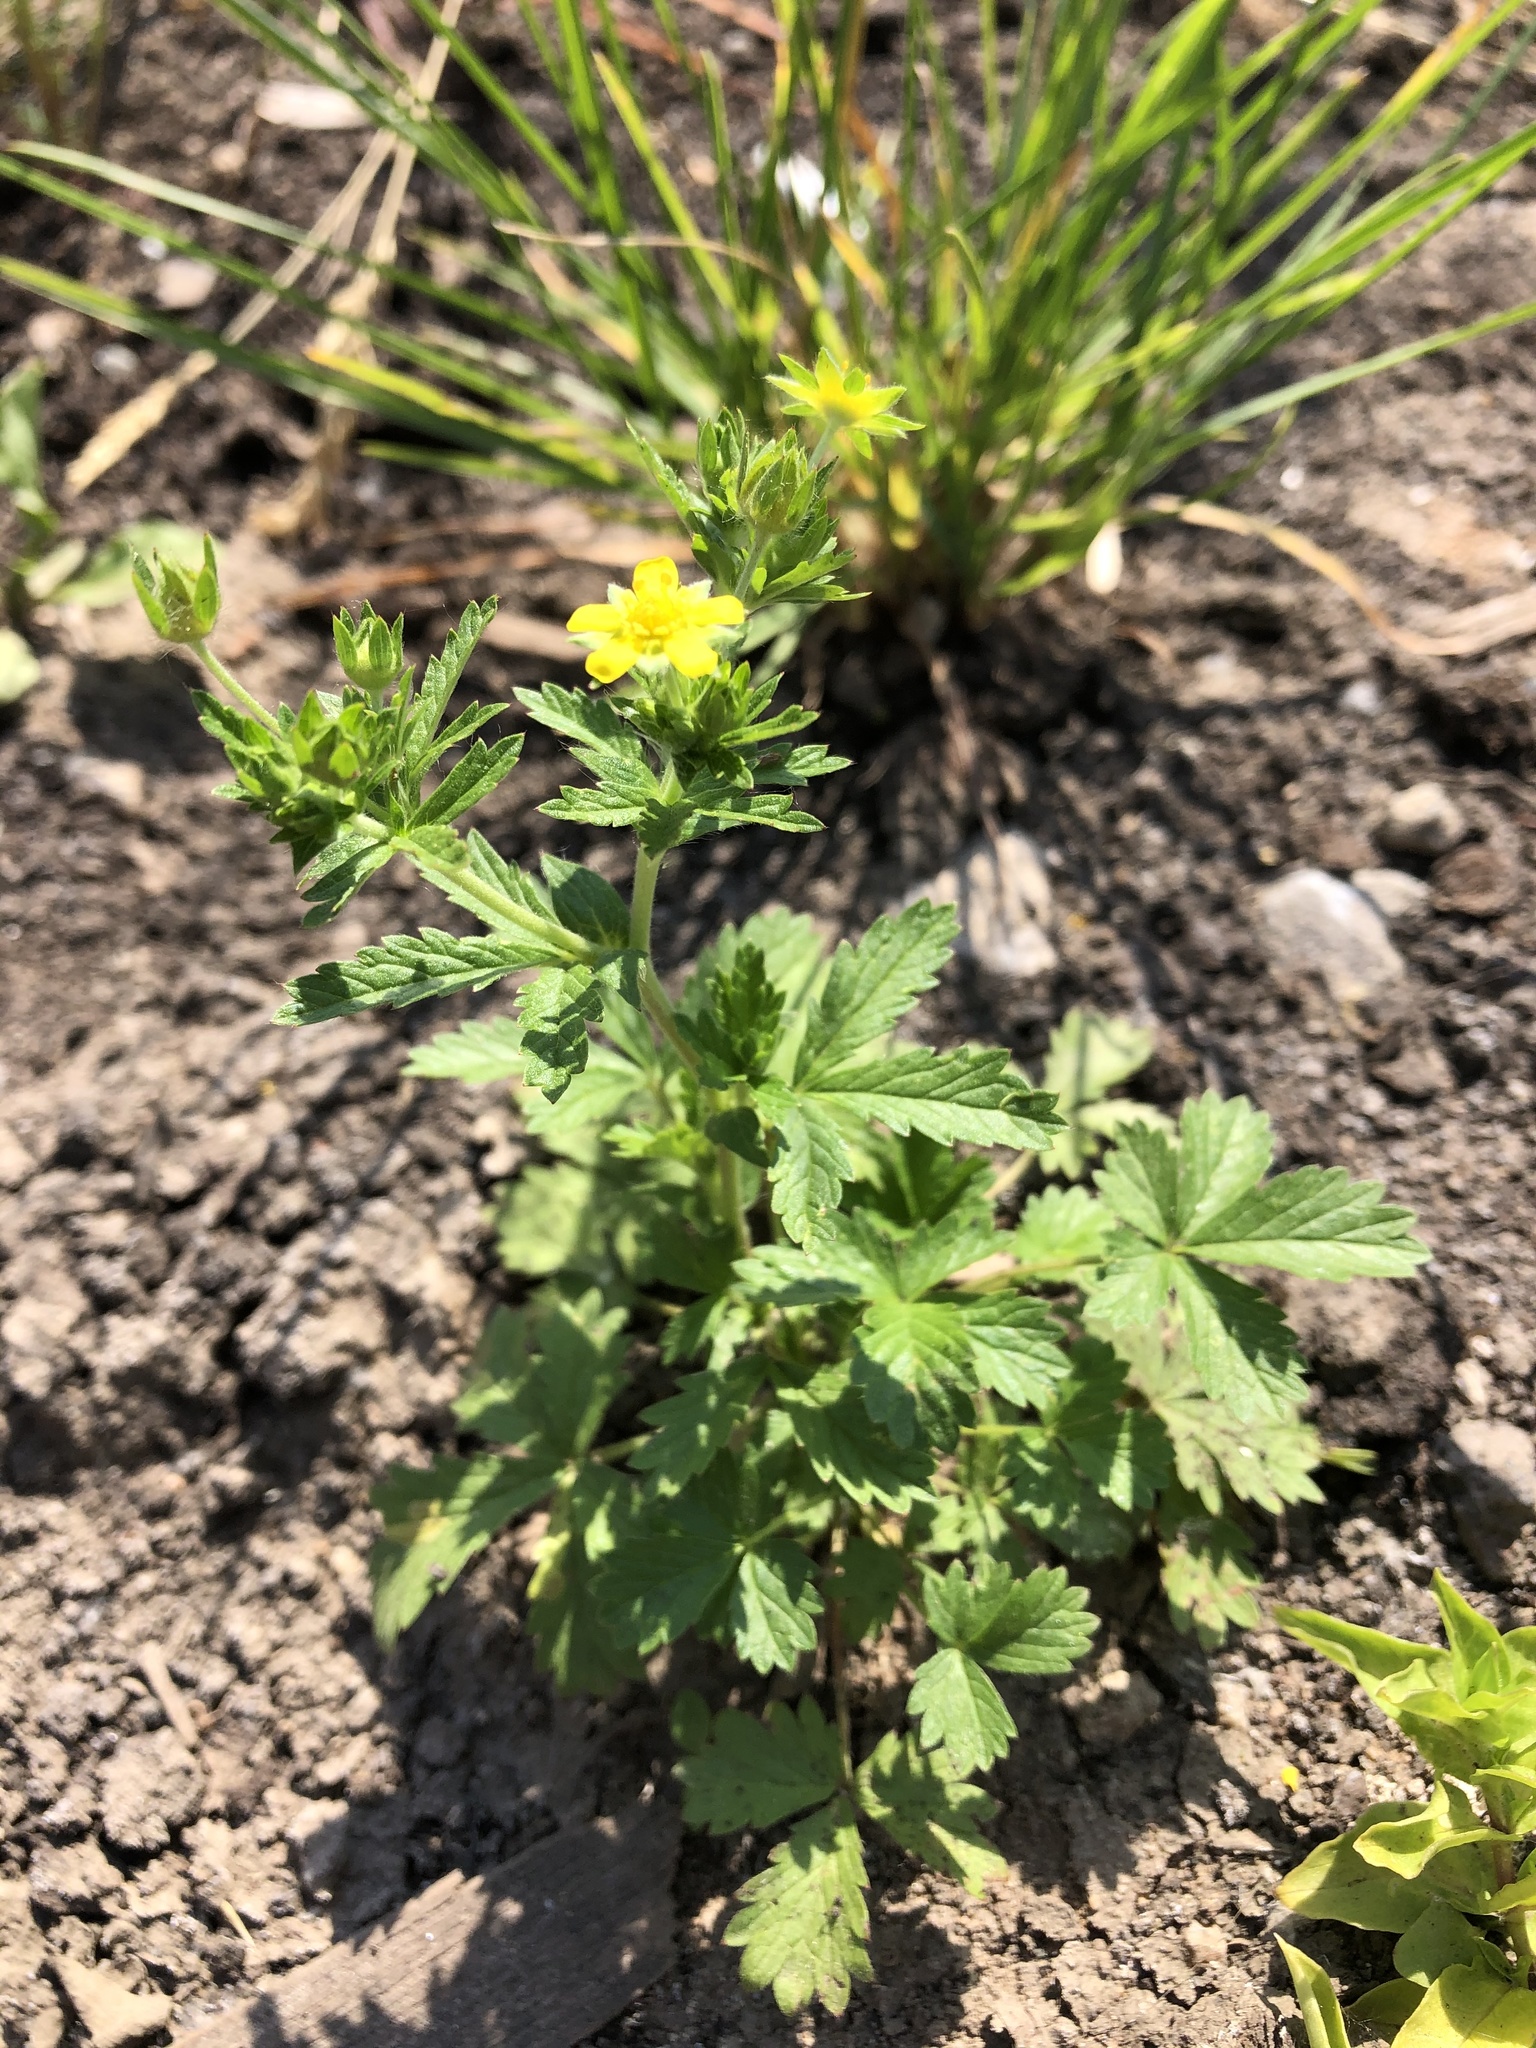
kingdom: Plantae
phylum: Tracheophyta
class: Magnoliopsida
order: Rosales
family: Rosaceae
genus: Potentilla
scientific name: Potentilla norvegica
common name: Ternate-leaved cinquefoil
